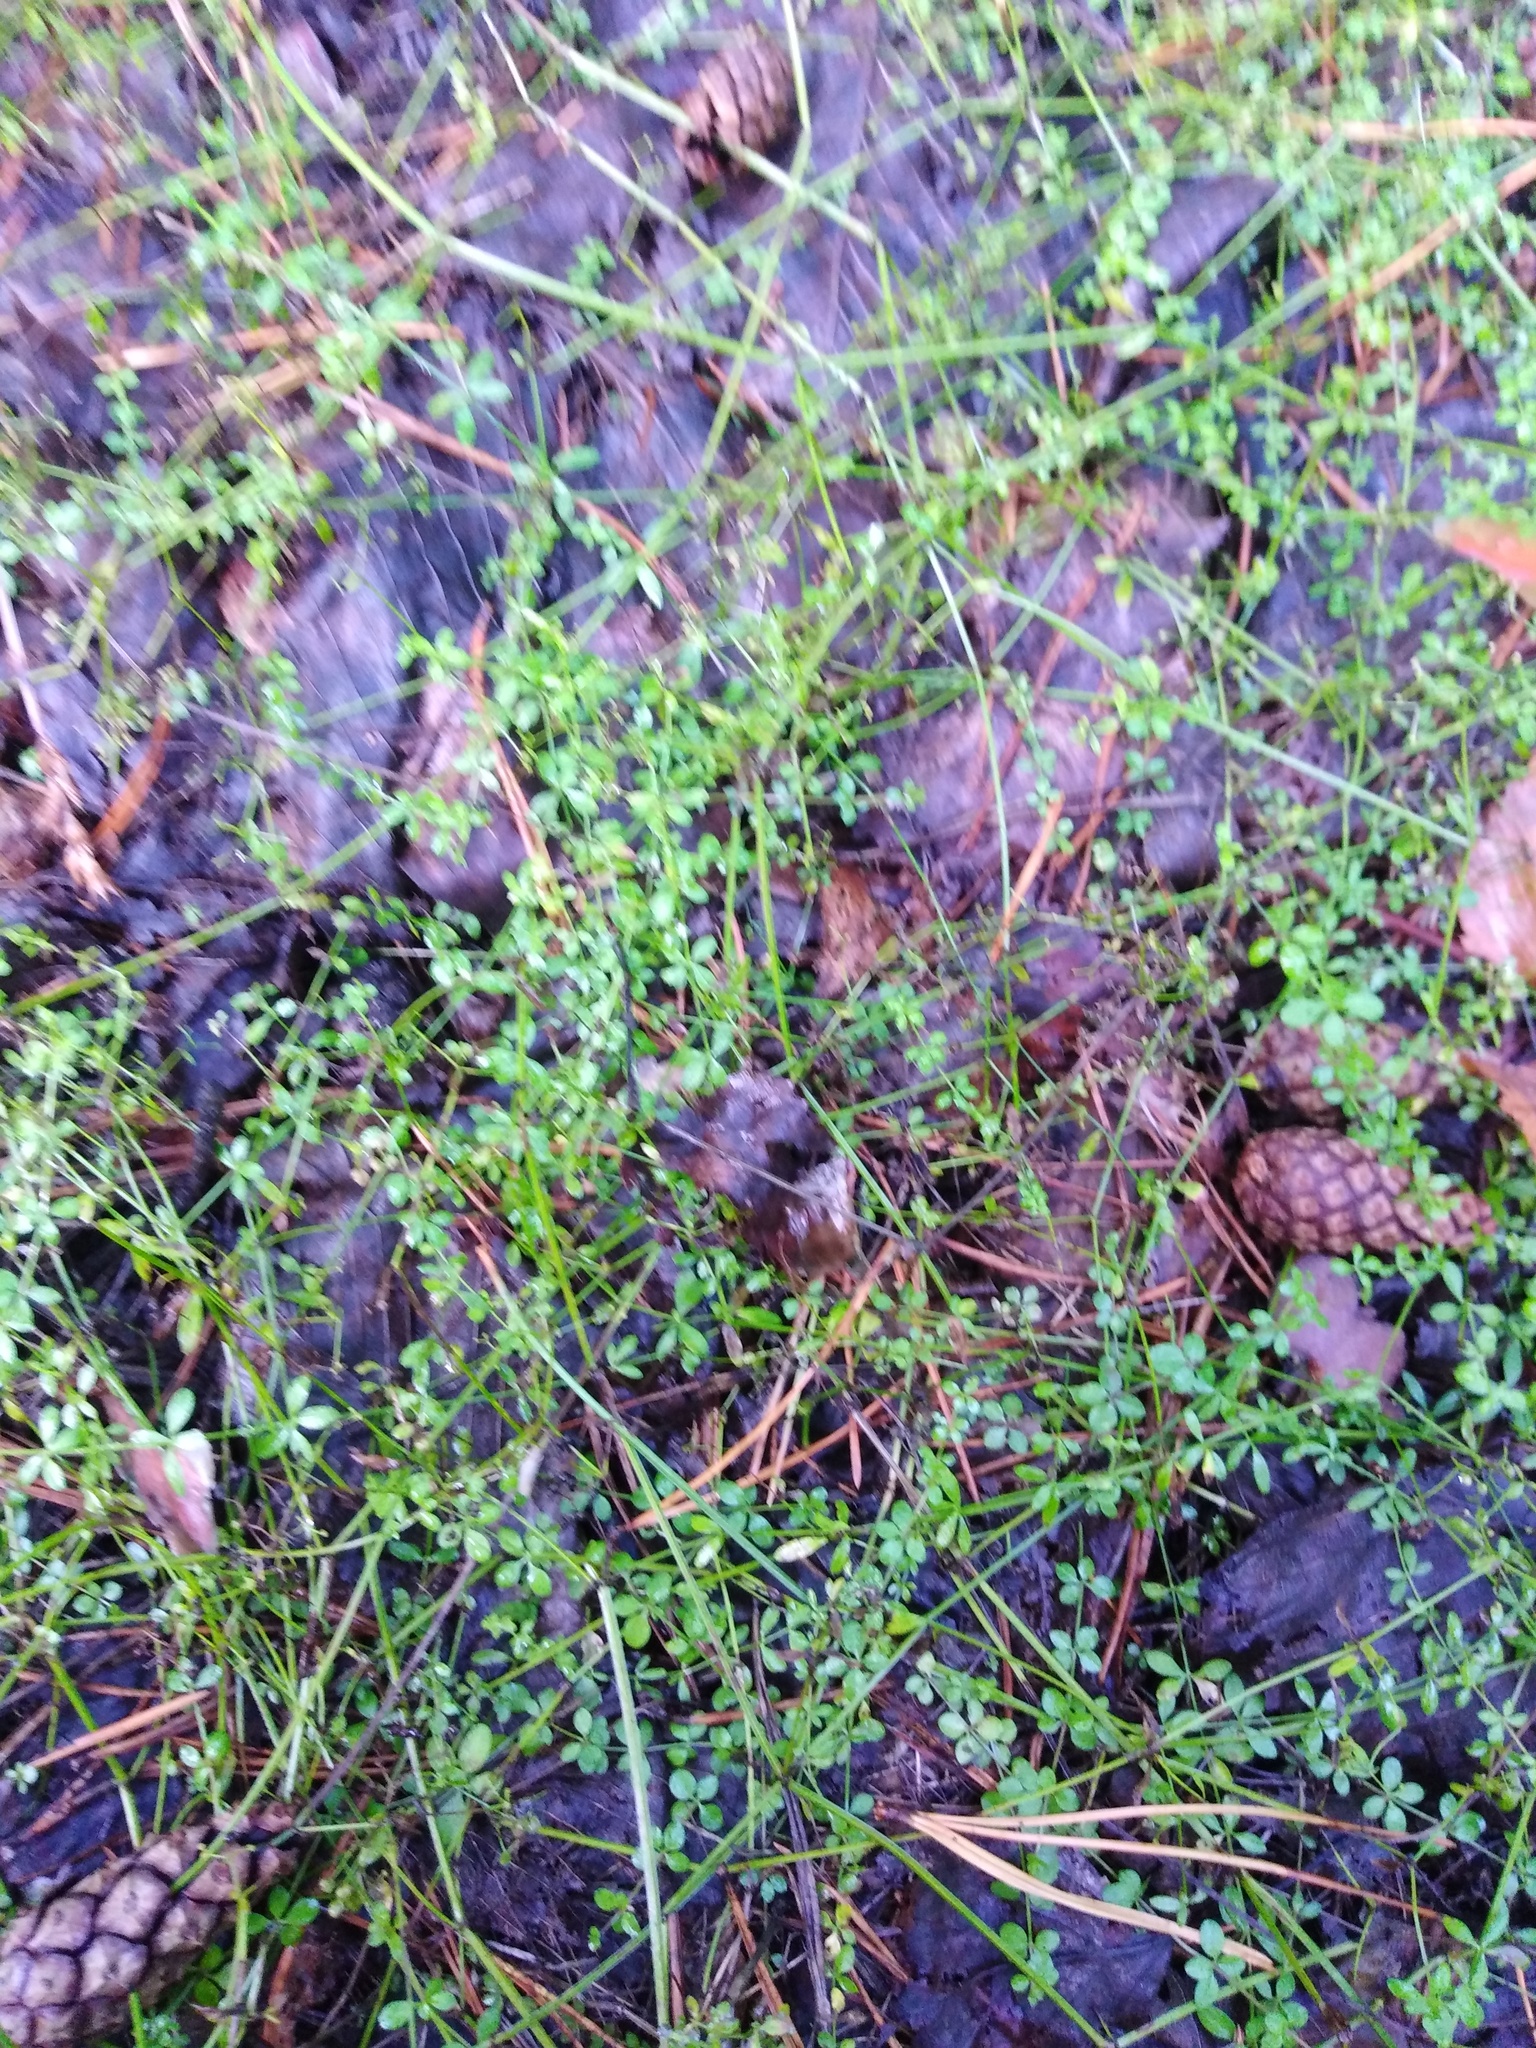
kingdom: Plantae
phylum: Tracheophyta
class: Magnoliopsida
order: Gentianales
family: Rubiaceae
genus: Galium
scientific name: Galium palustre
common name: Common marsh-bedstraw
